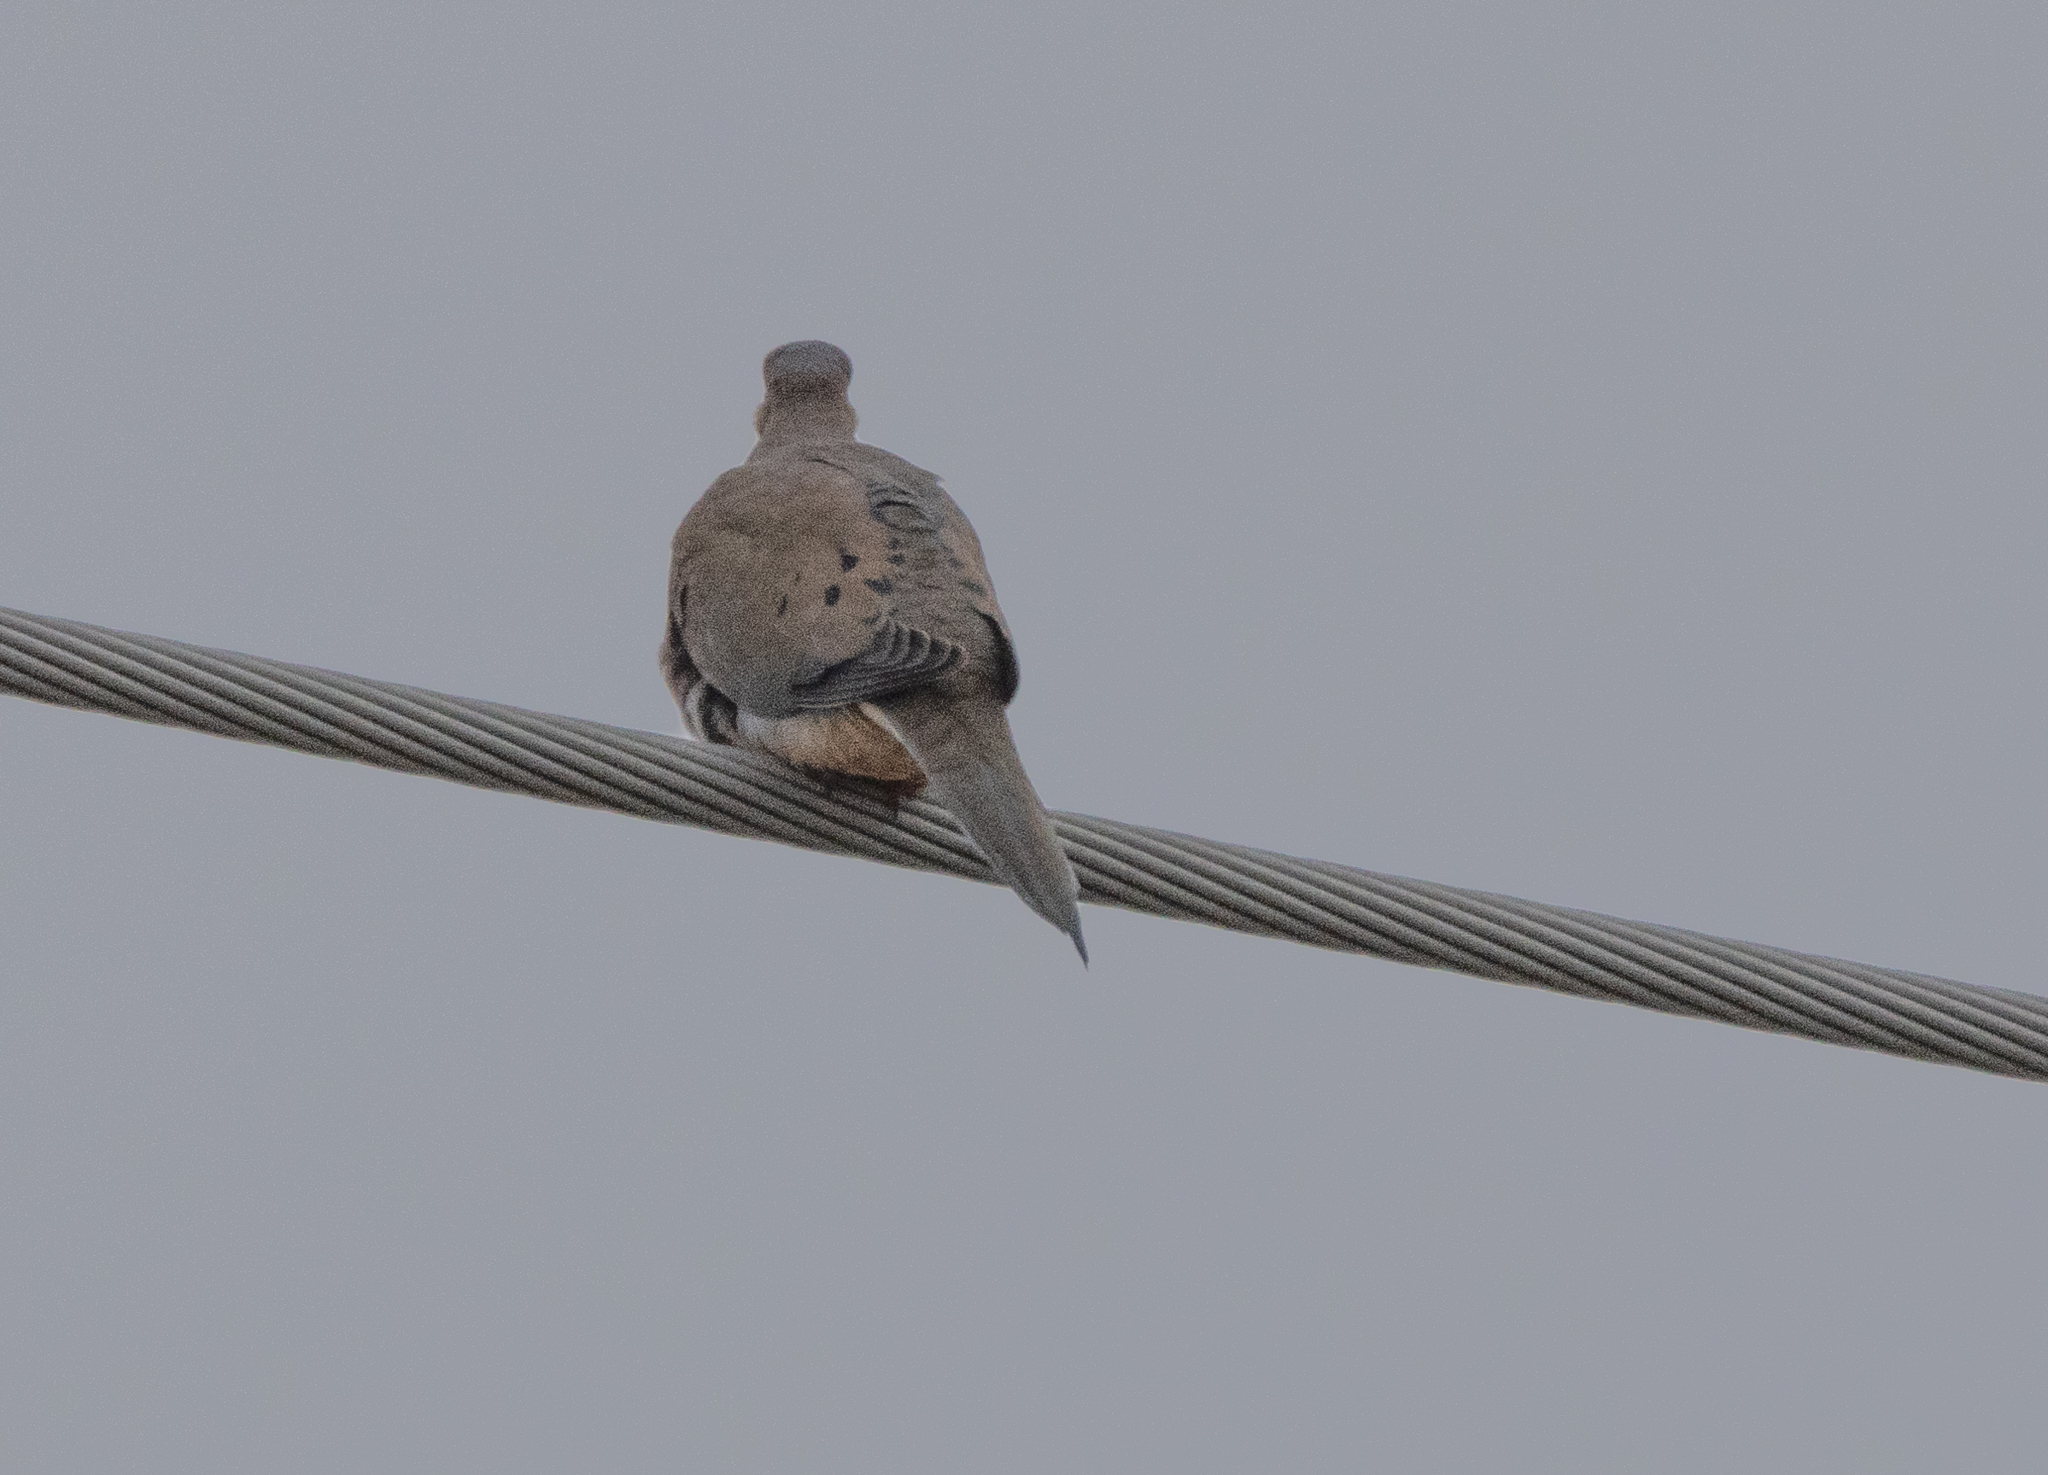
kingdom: Animalia
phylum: Chordata
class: Aves
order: Columbiformes
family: Columbidae
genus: Zenaida
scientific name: Zenaida macroura
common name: Mourning dove
